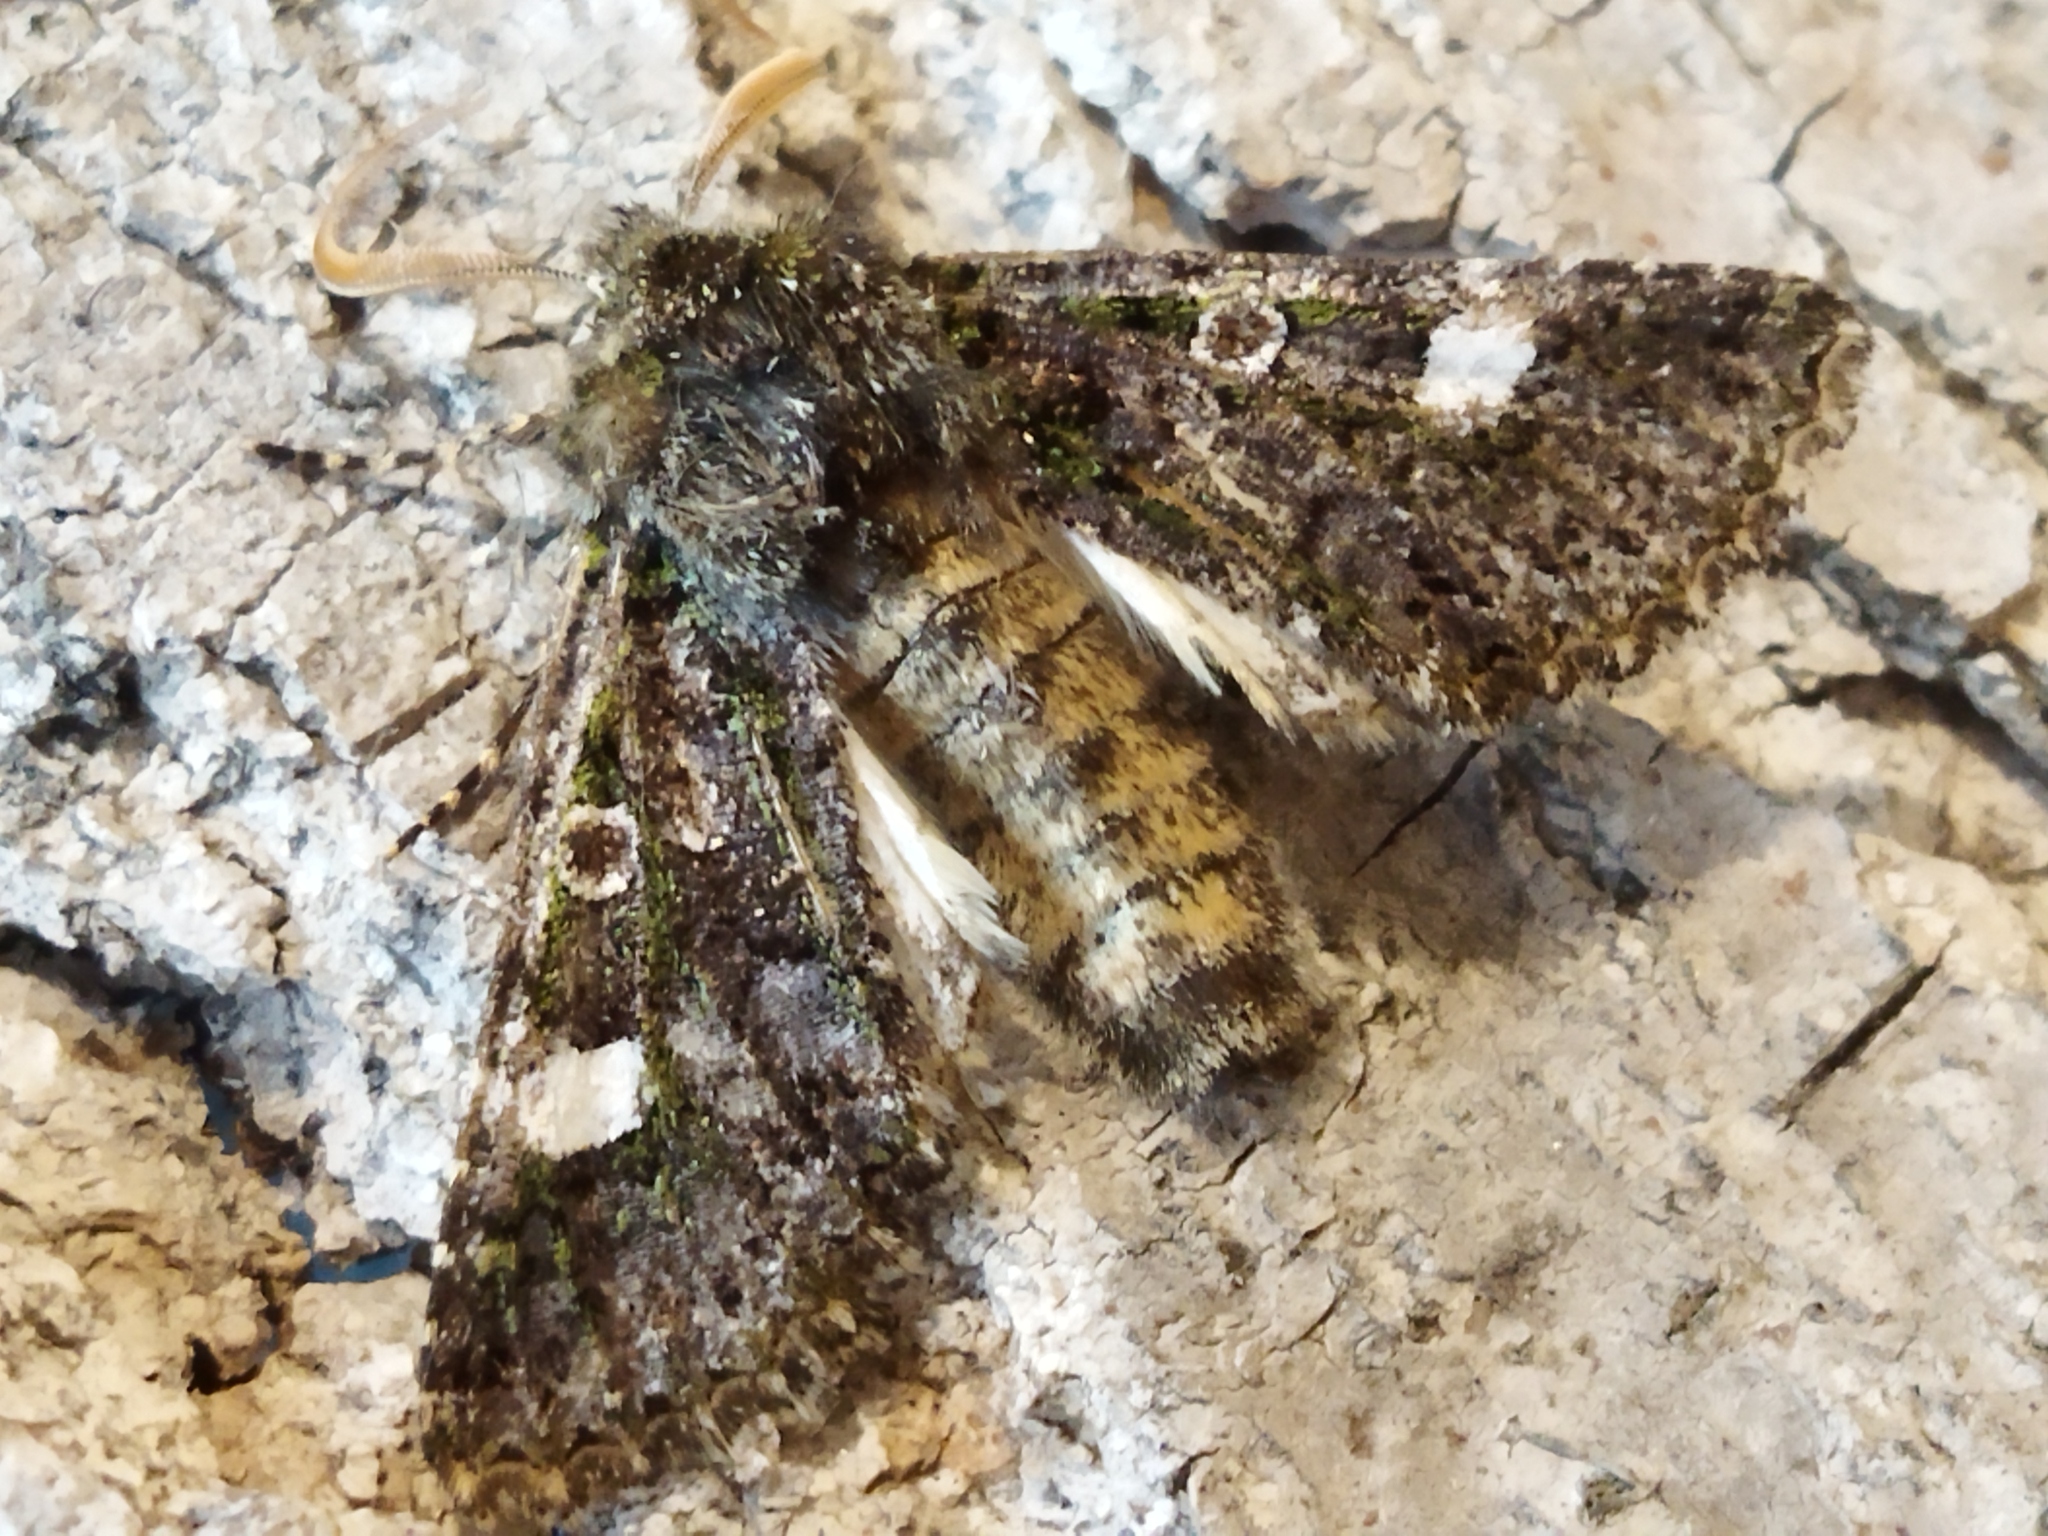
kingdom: Animalia
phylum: Arthropoda
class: Insecta
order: Lepidoptera
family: Noctuidae
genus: Valeria
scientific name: Valeria oleagina
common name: Green-brindled dot
